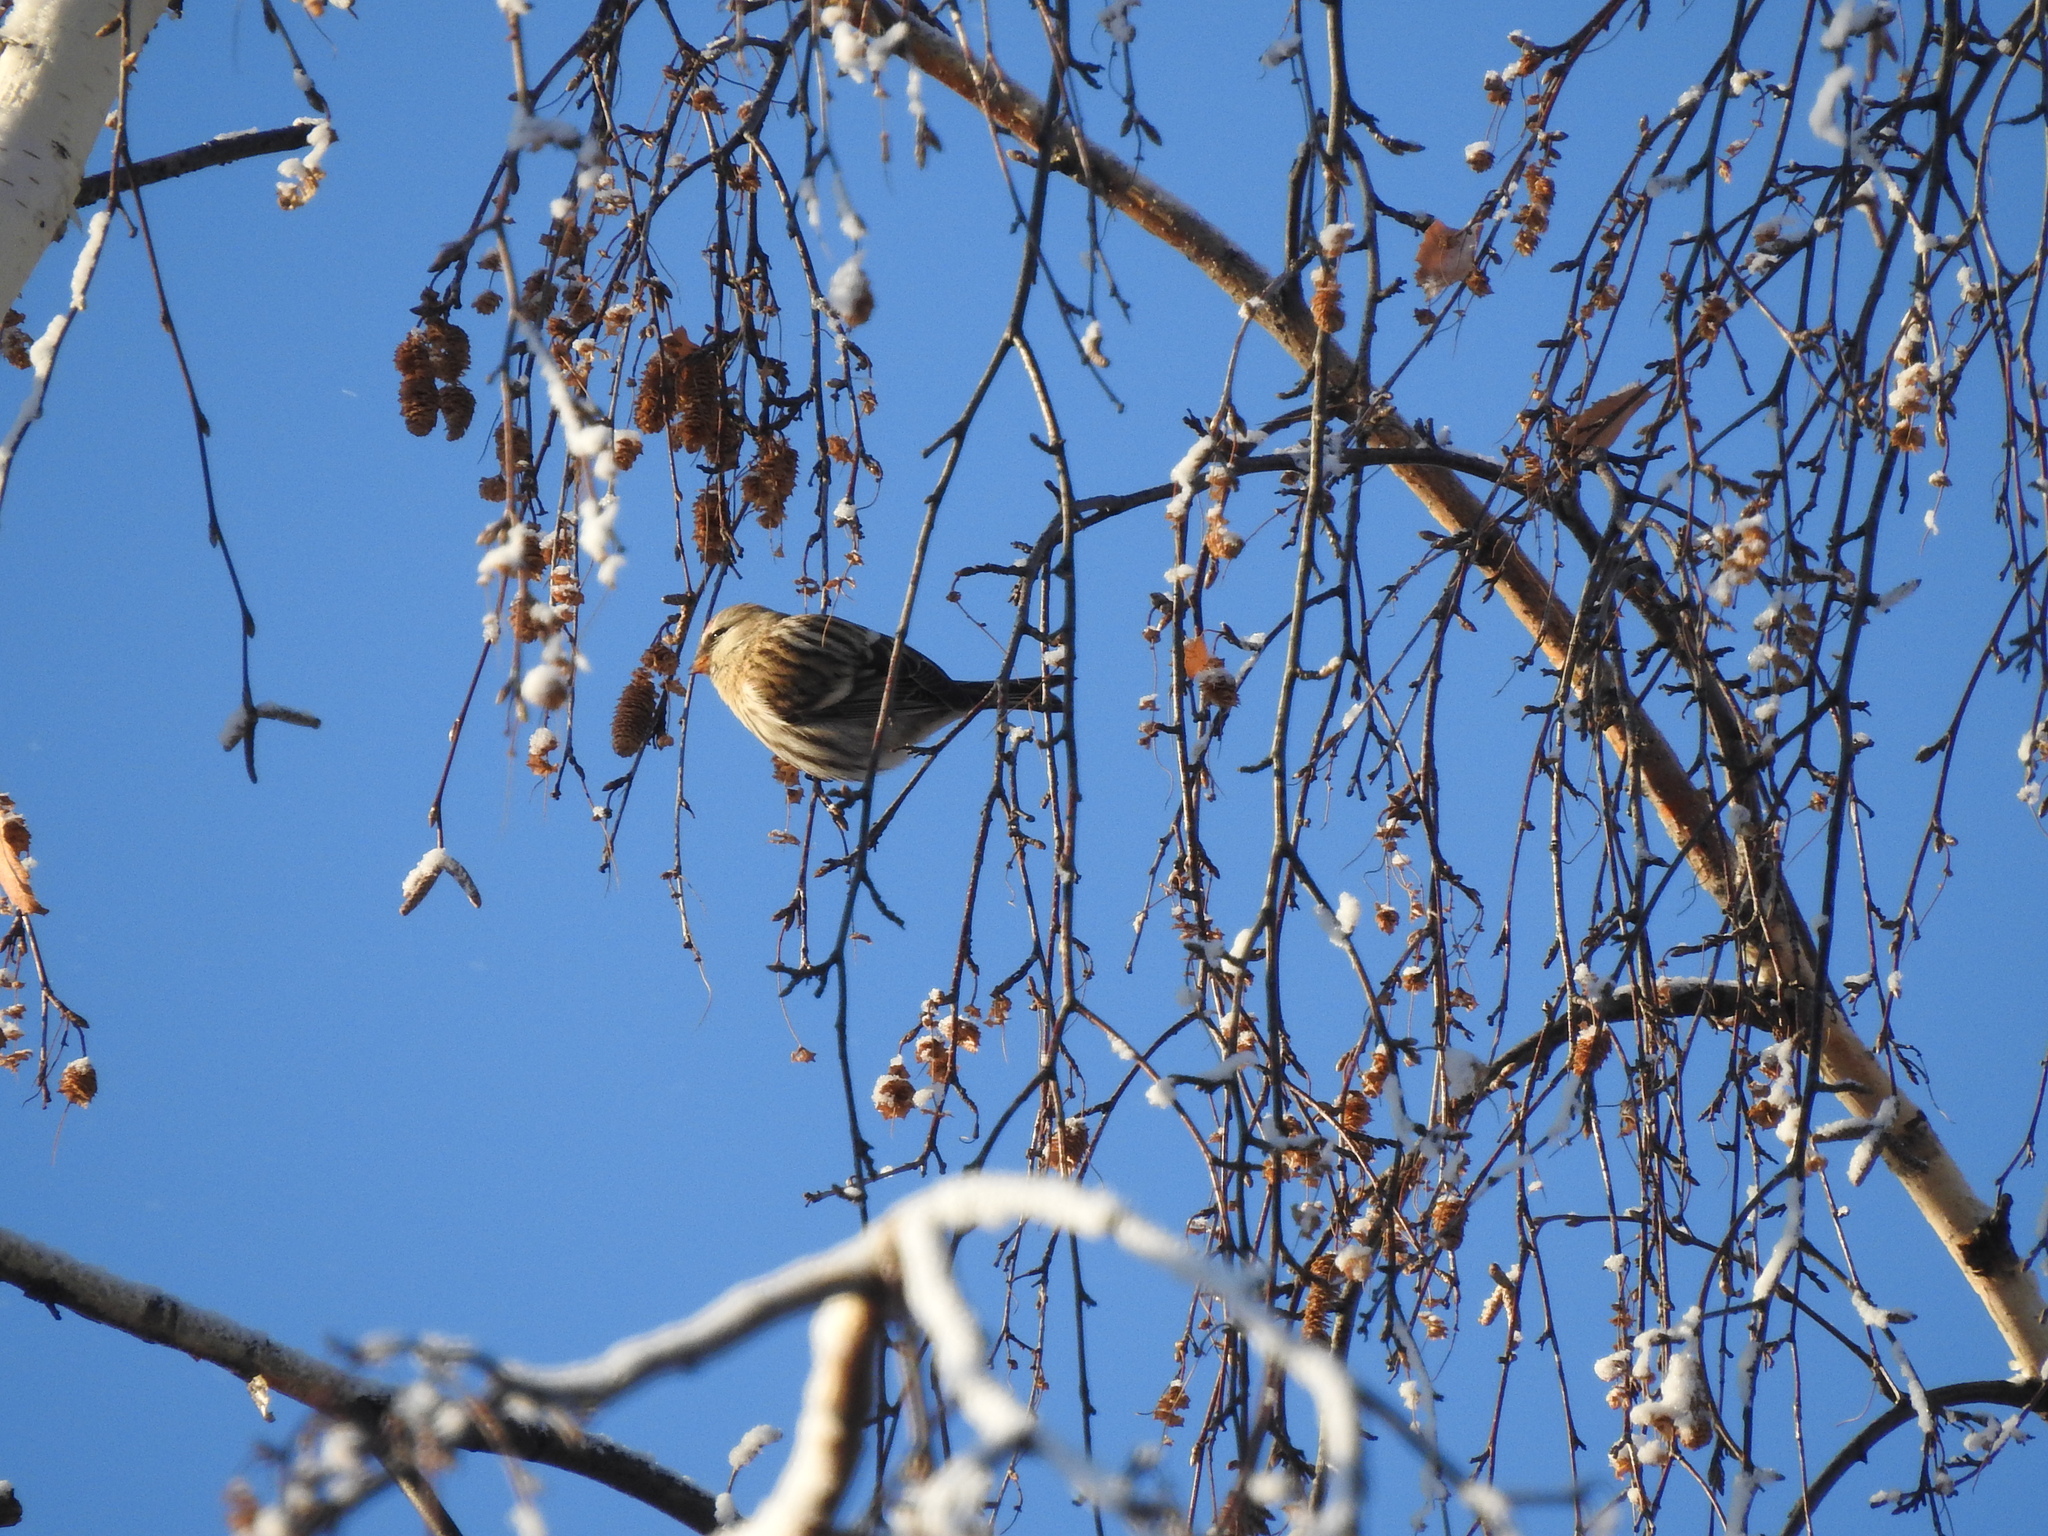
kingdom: Animalia
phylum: Chordata
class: Aves
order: Passeriformes
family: Fringillidae
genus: Acanthis
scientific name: Acanthis flammea
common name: Common redpoll
